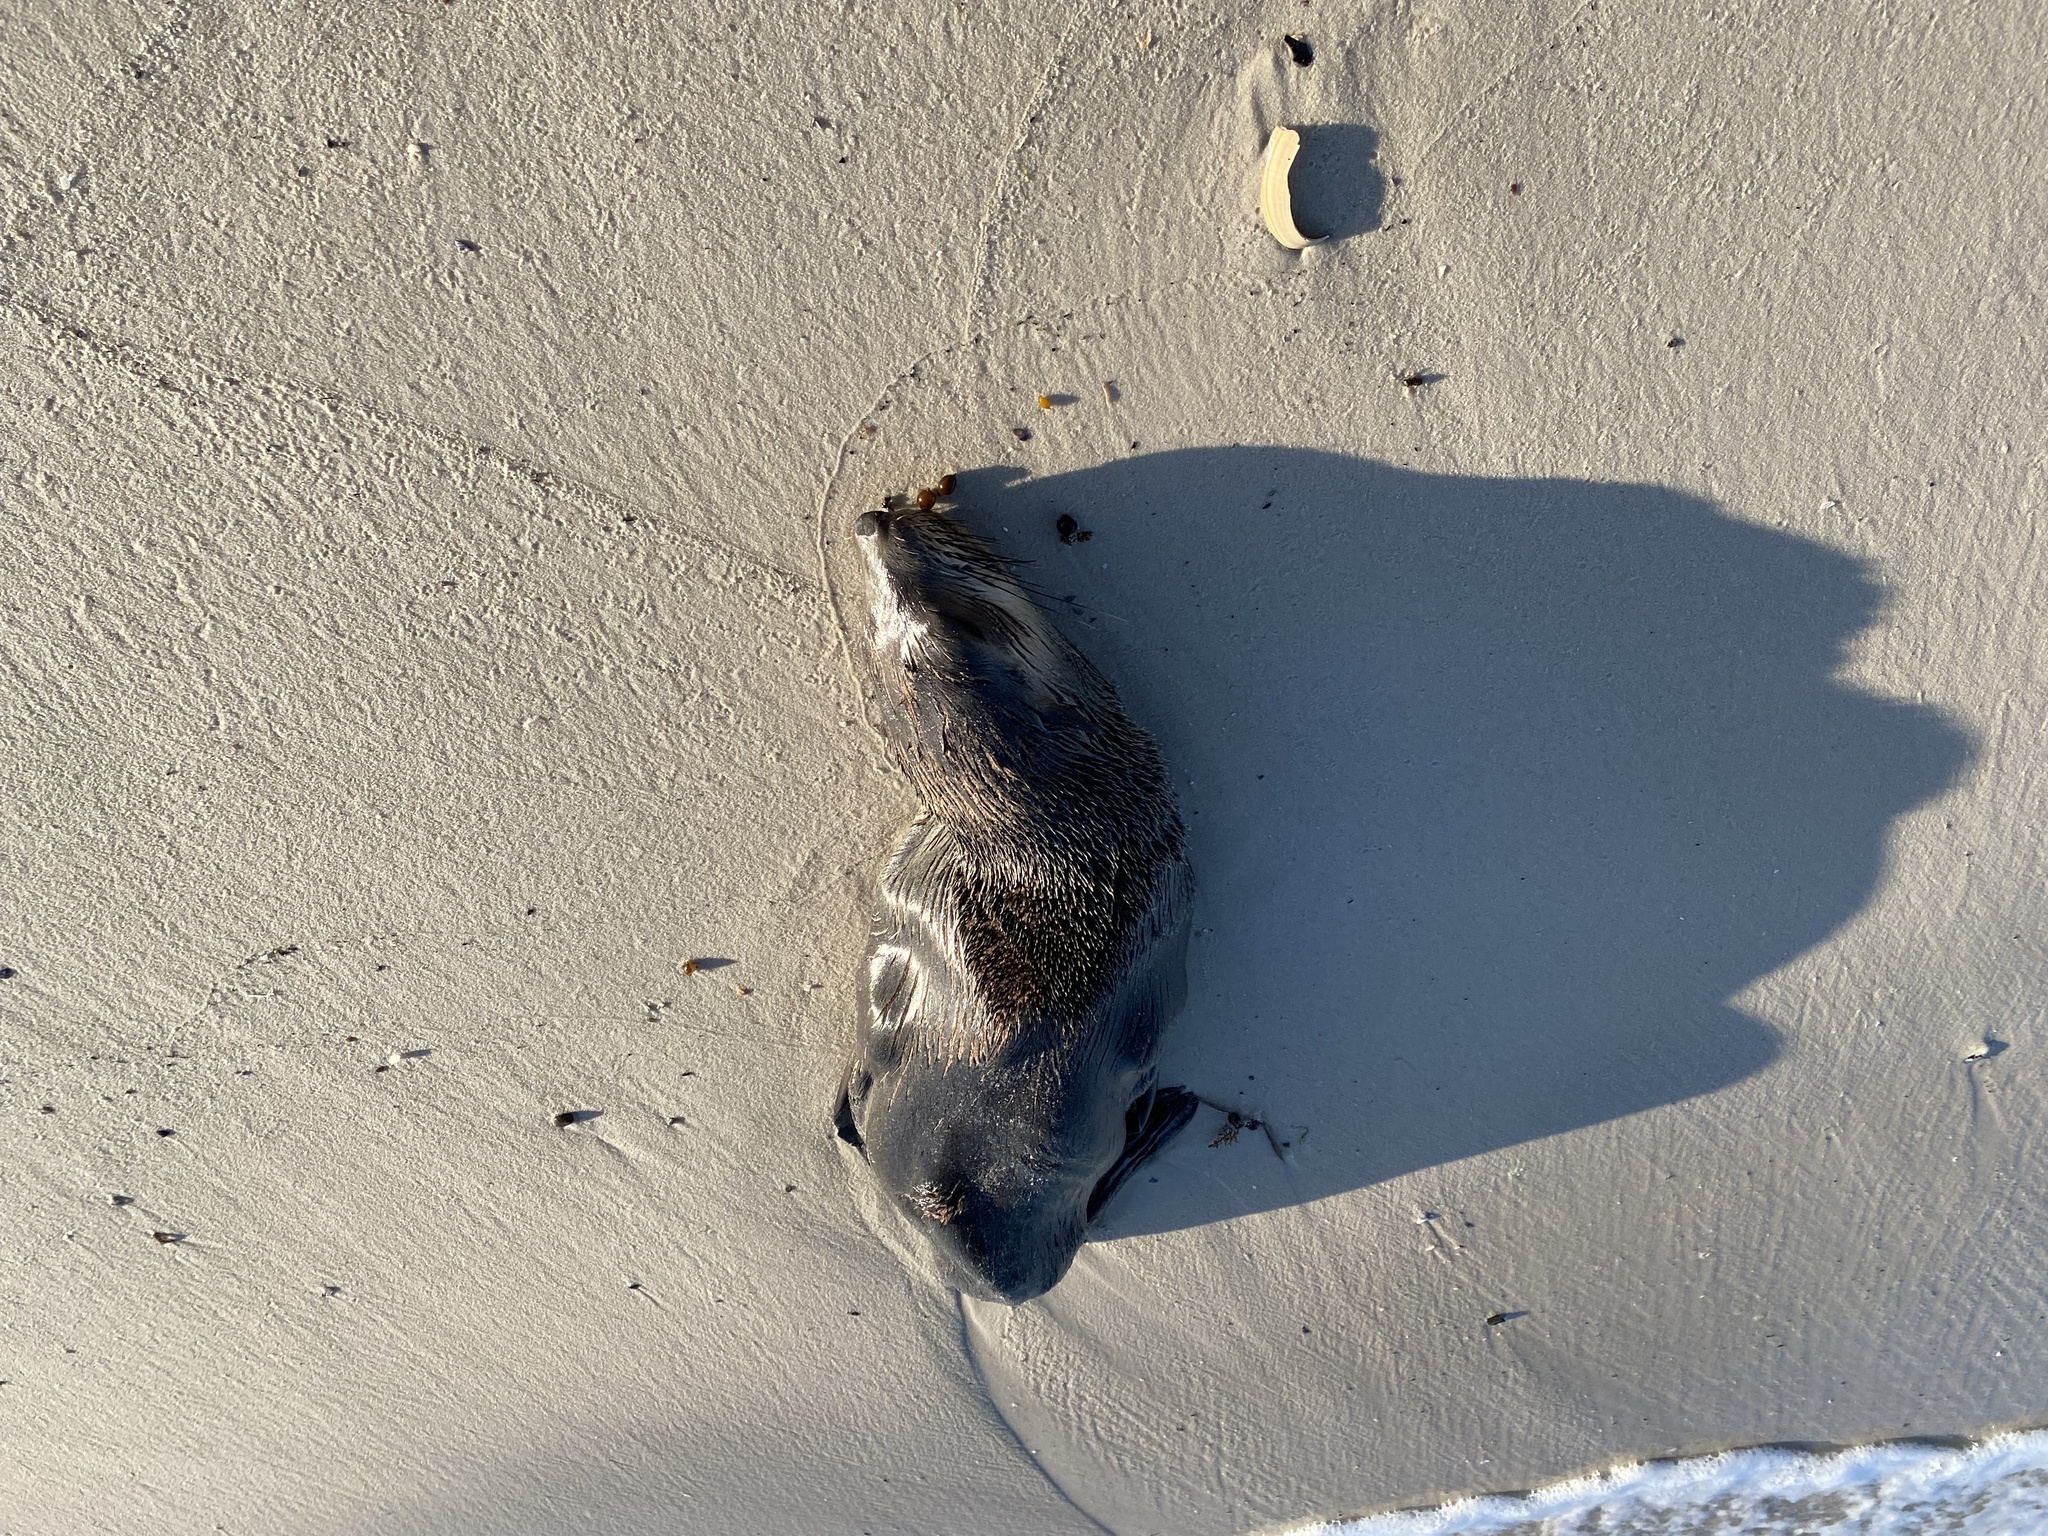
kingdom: Animalia
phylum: Chordata
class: Mammalia
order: Carnivora
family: Otariidae
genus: Arctocephalus
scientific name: Arctocephalus pusillus
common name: Brown fur seal
